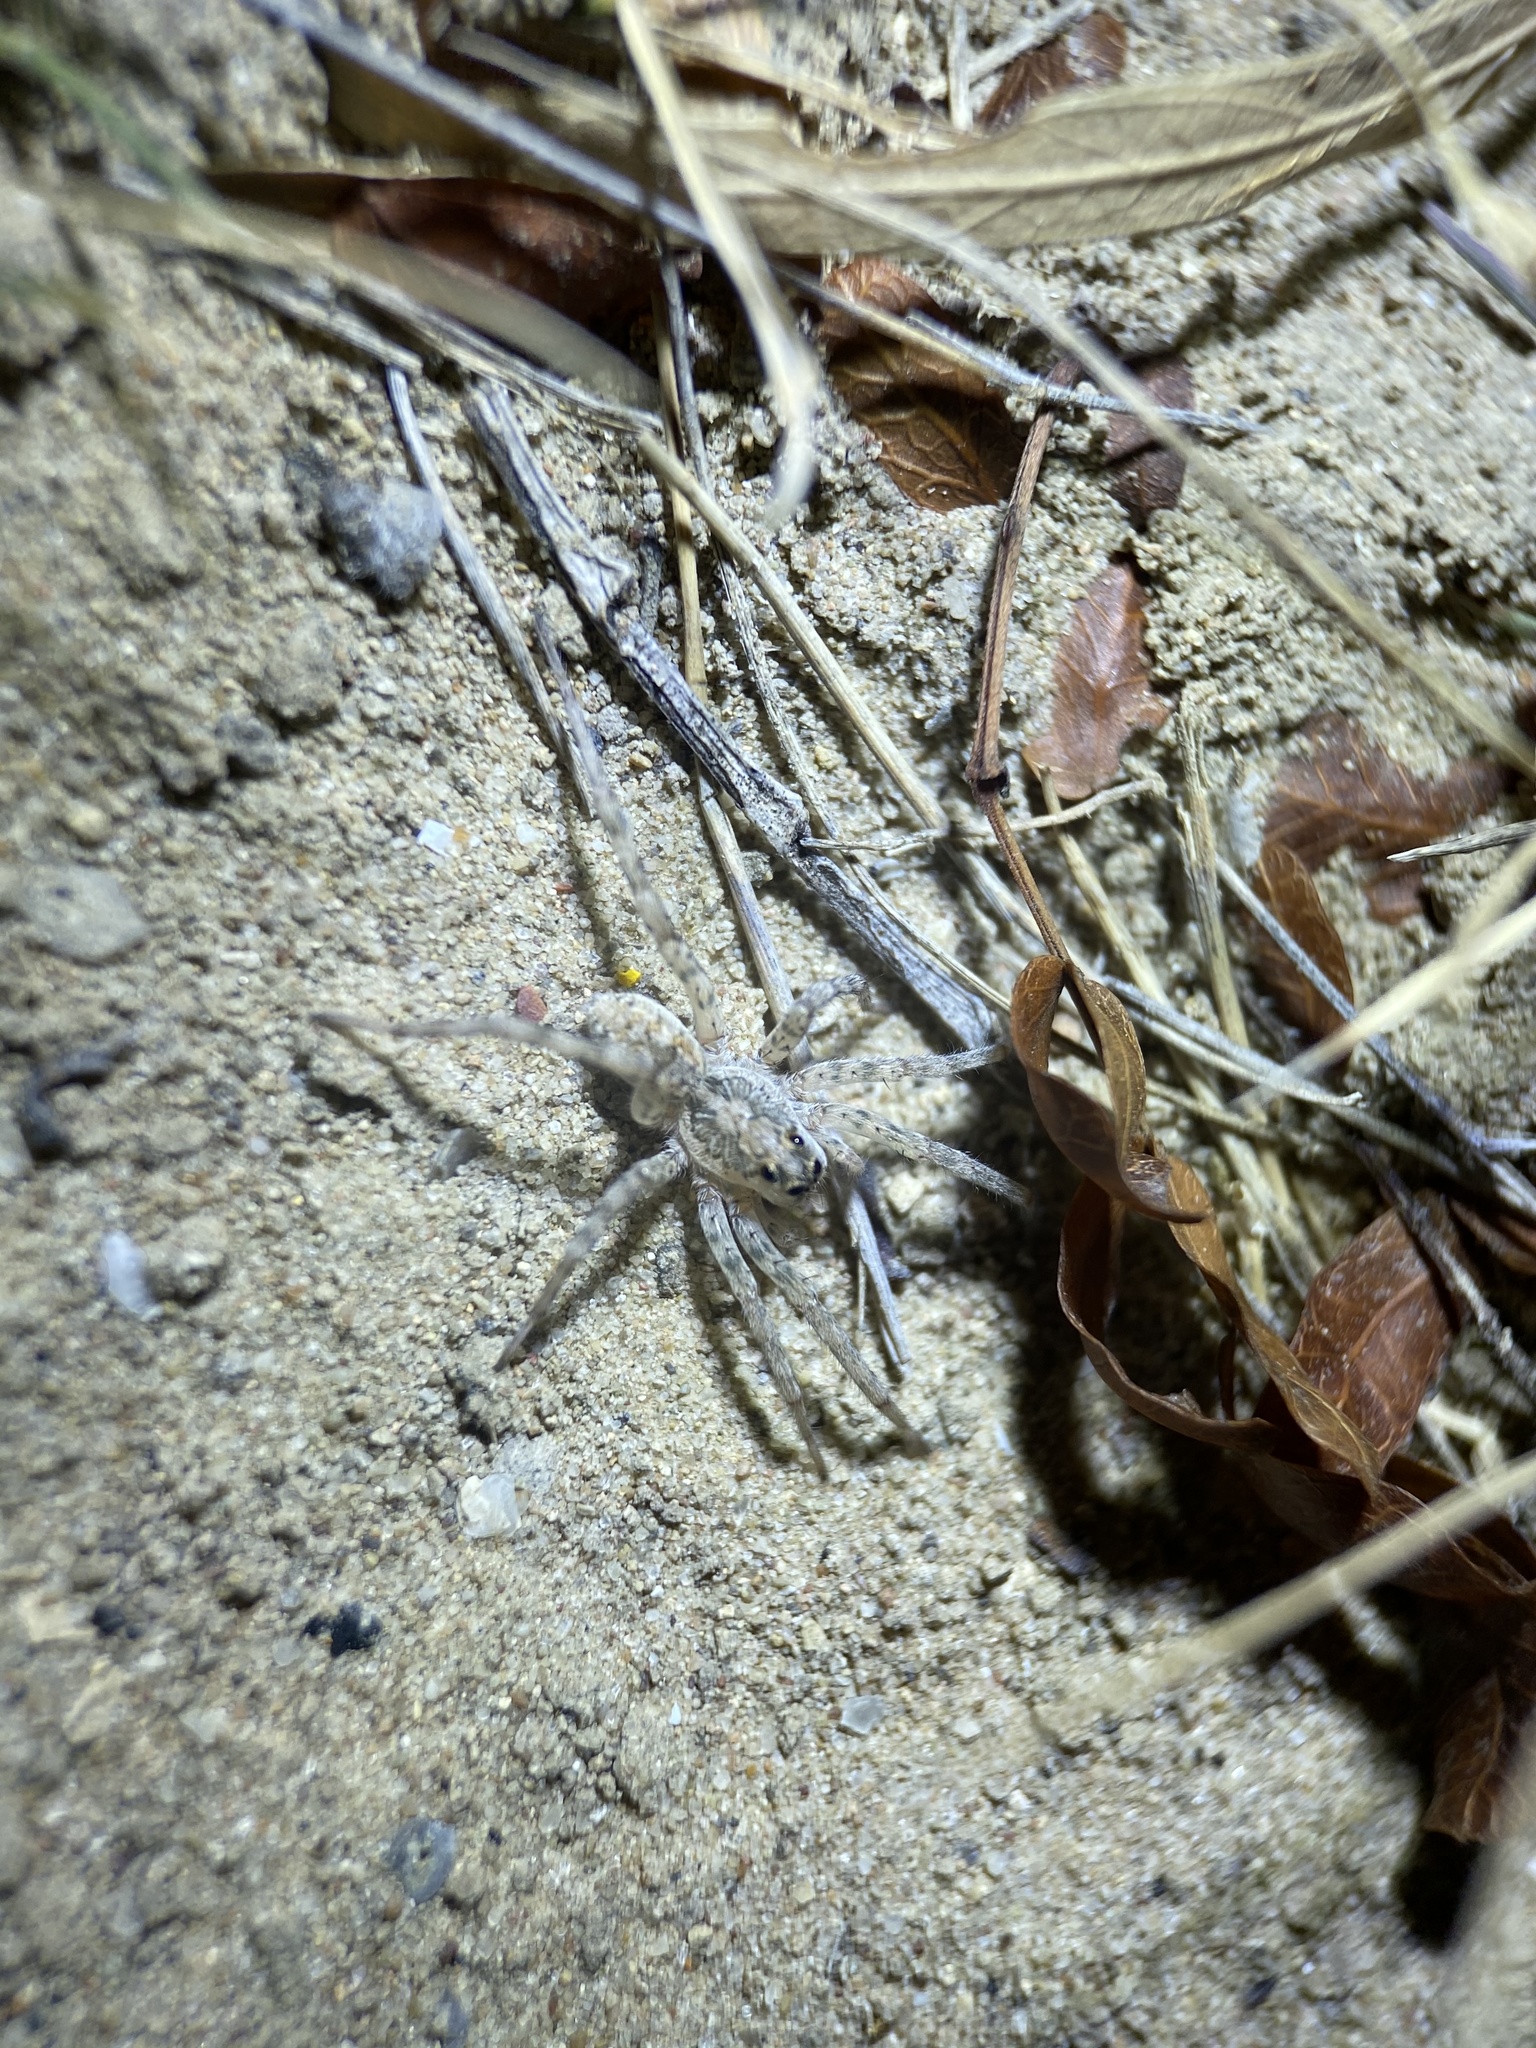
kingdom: Animalia
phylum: Arthropoda
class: Arachnida
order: Araneae
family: Lycosidae
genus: Hogna
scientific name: Hogna baltimoriana
